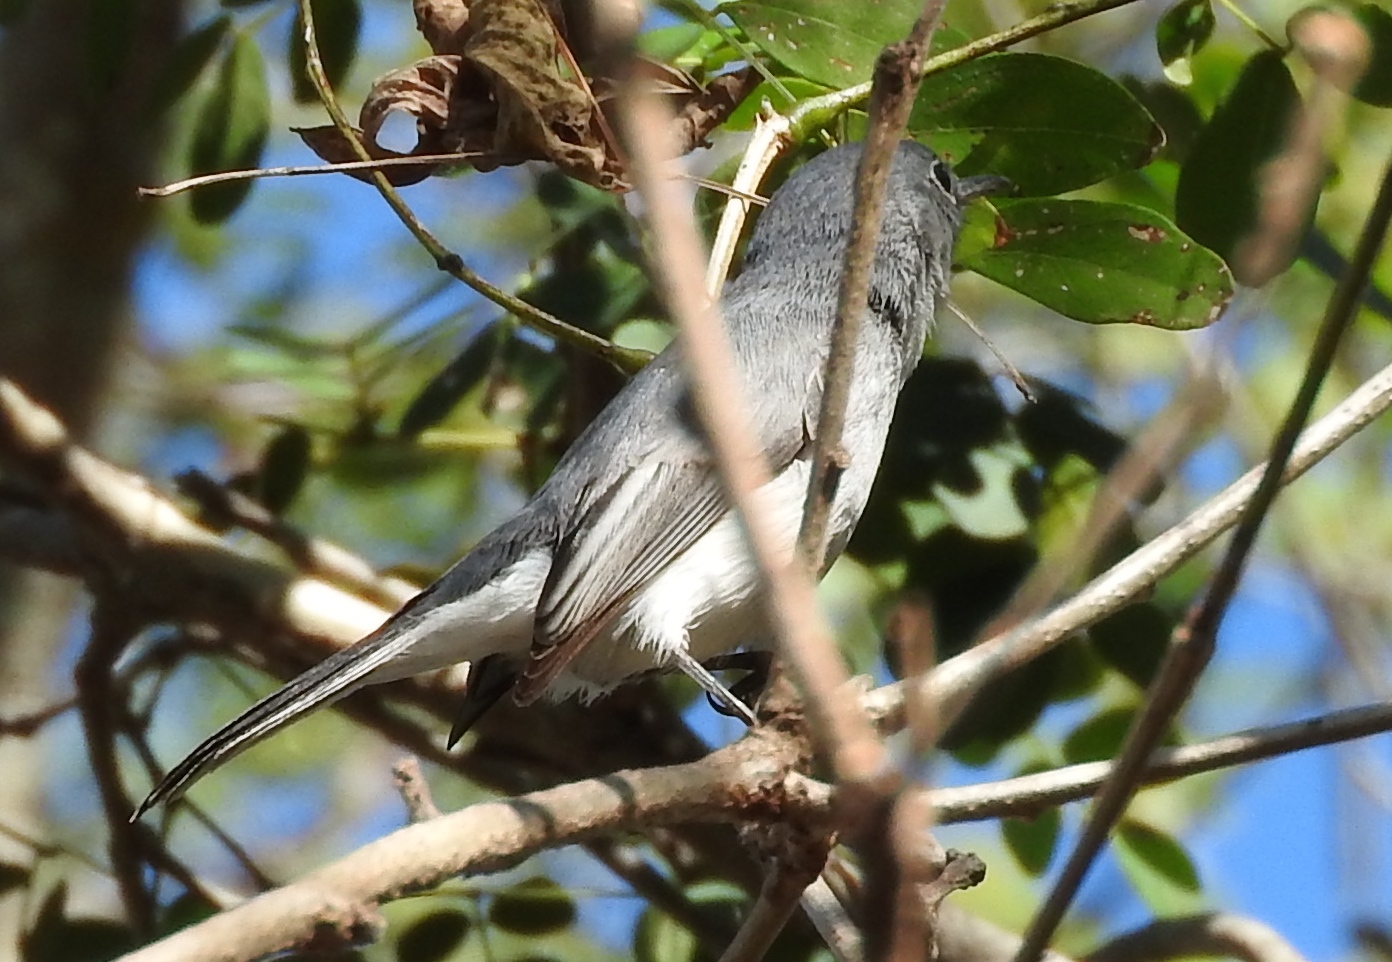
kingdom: Animalia
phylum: Chordata
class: Aves
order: Passeriformes
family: Polioptilidae
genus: Polioptila
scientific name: Polioptila caerulea
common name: Blue-gray gnatcatcher
